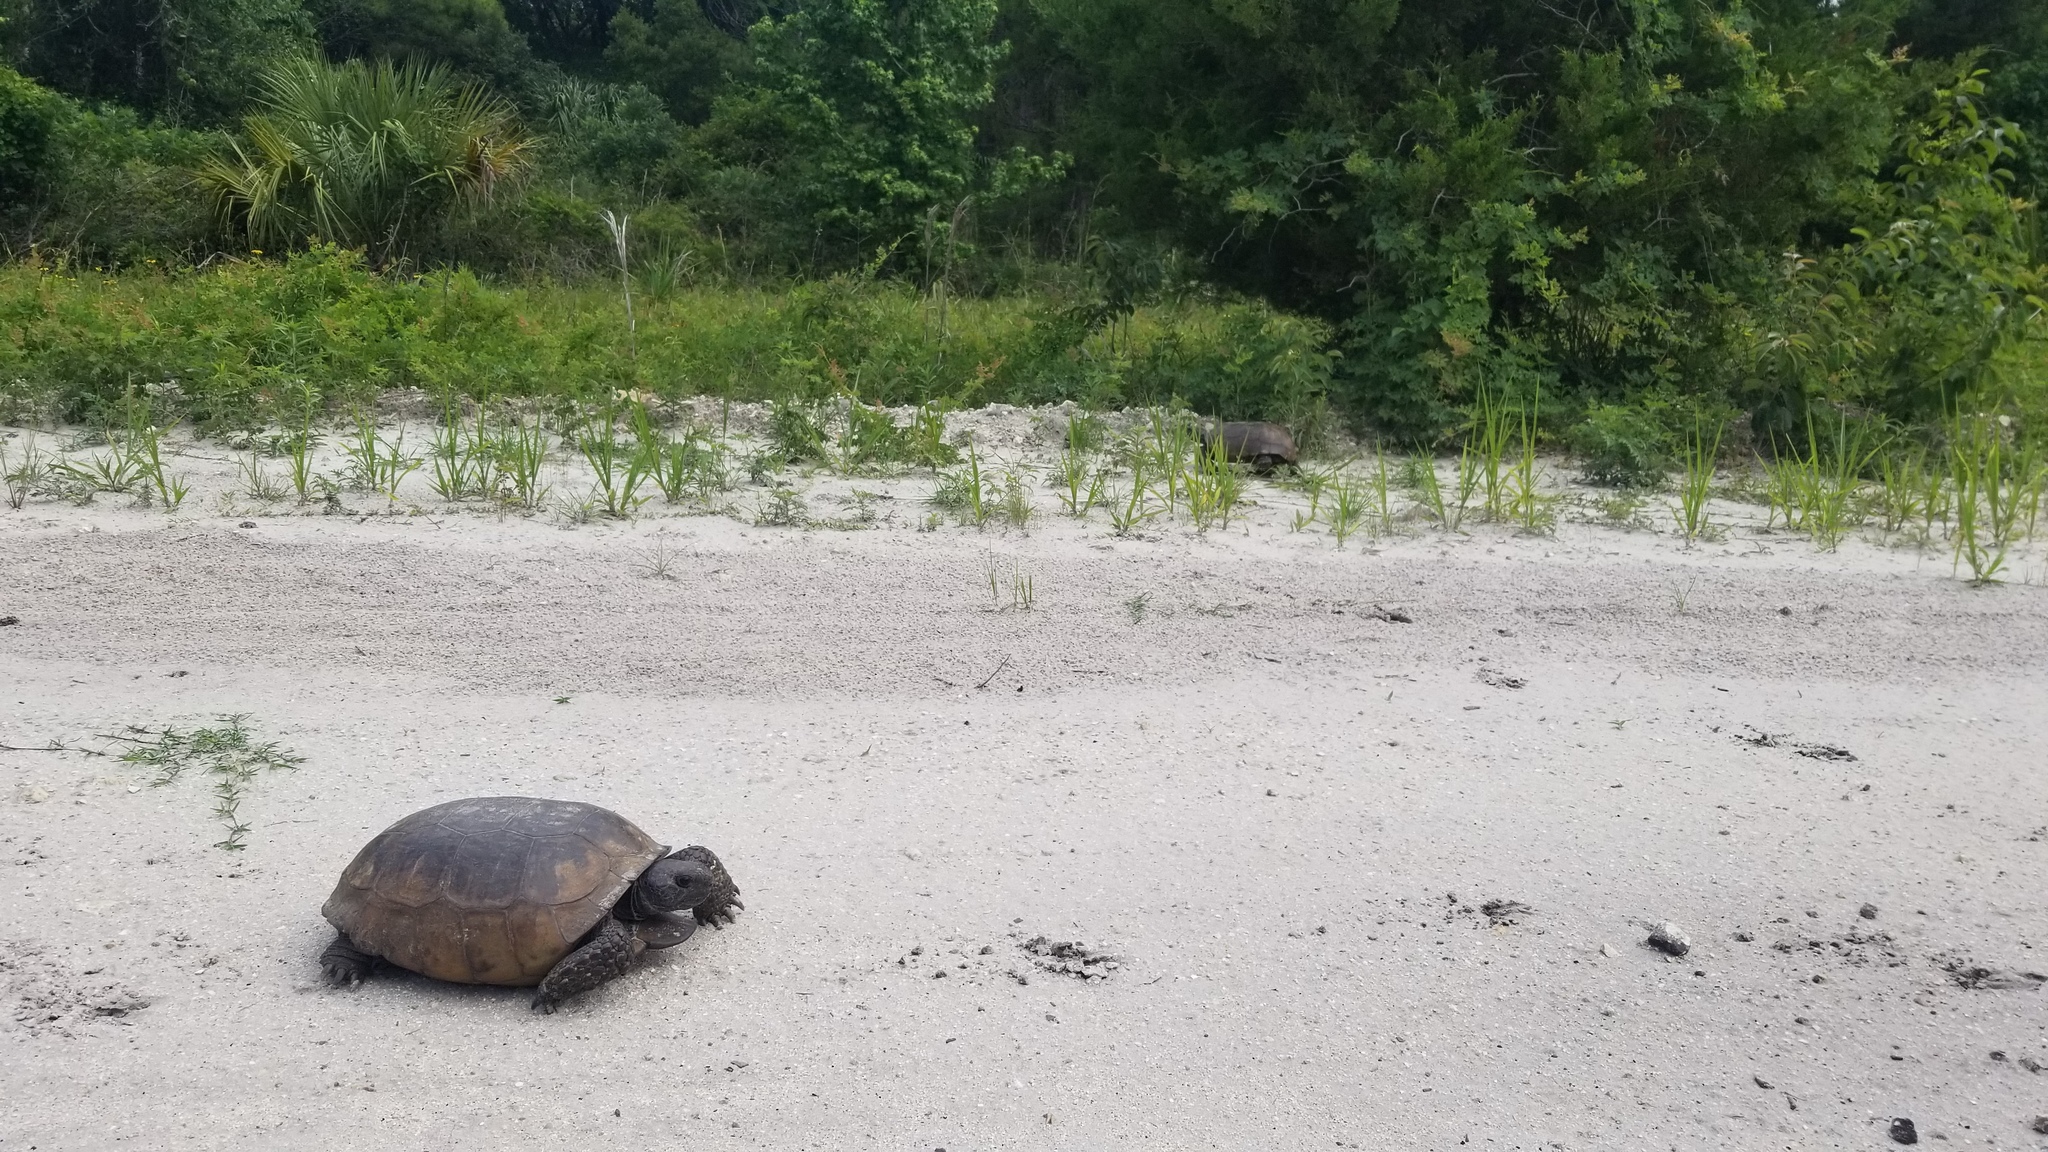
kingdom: Animalia
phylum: Chordata
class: Testudines
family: Testudinidae
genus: Gopherus
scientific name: Gopherus polyphemus
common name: Florida gopher tortoise
